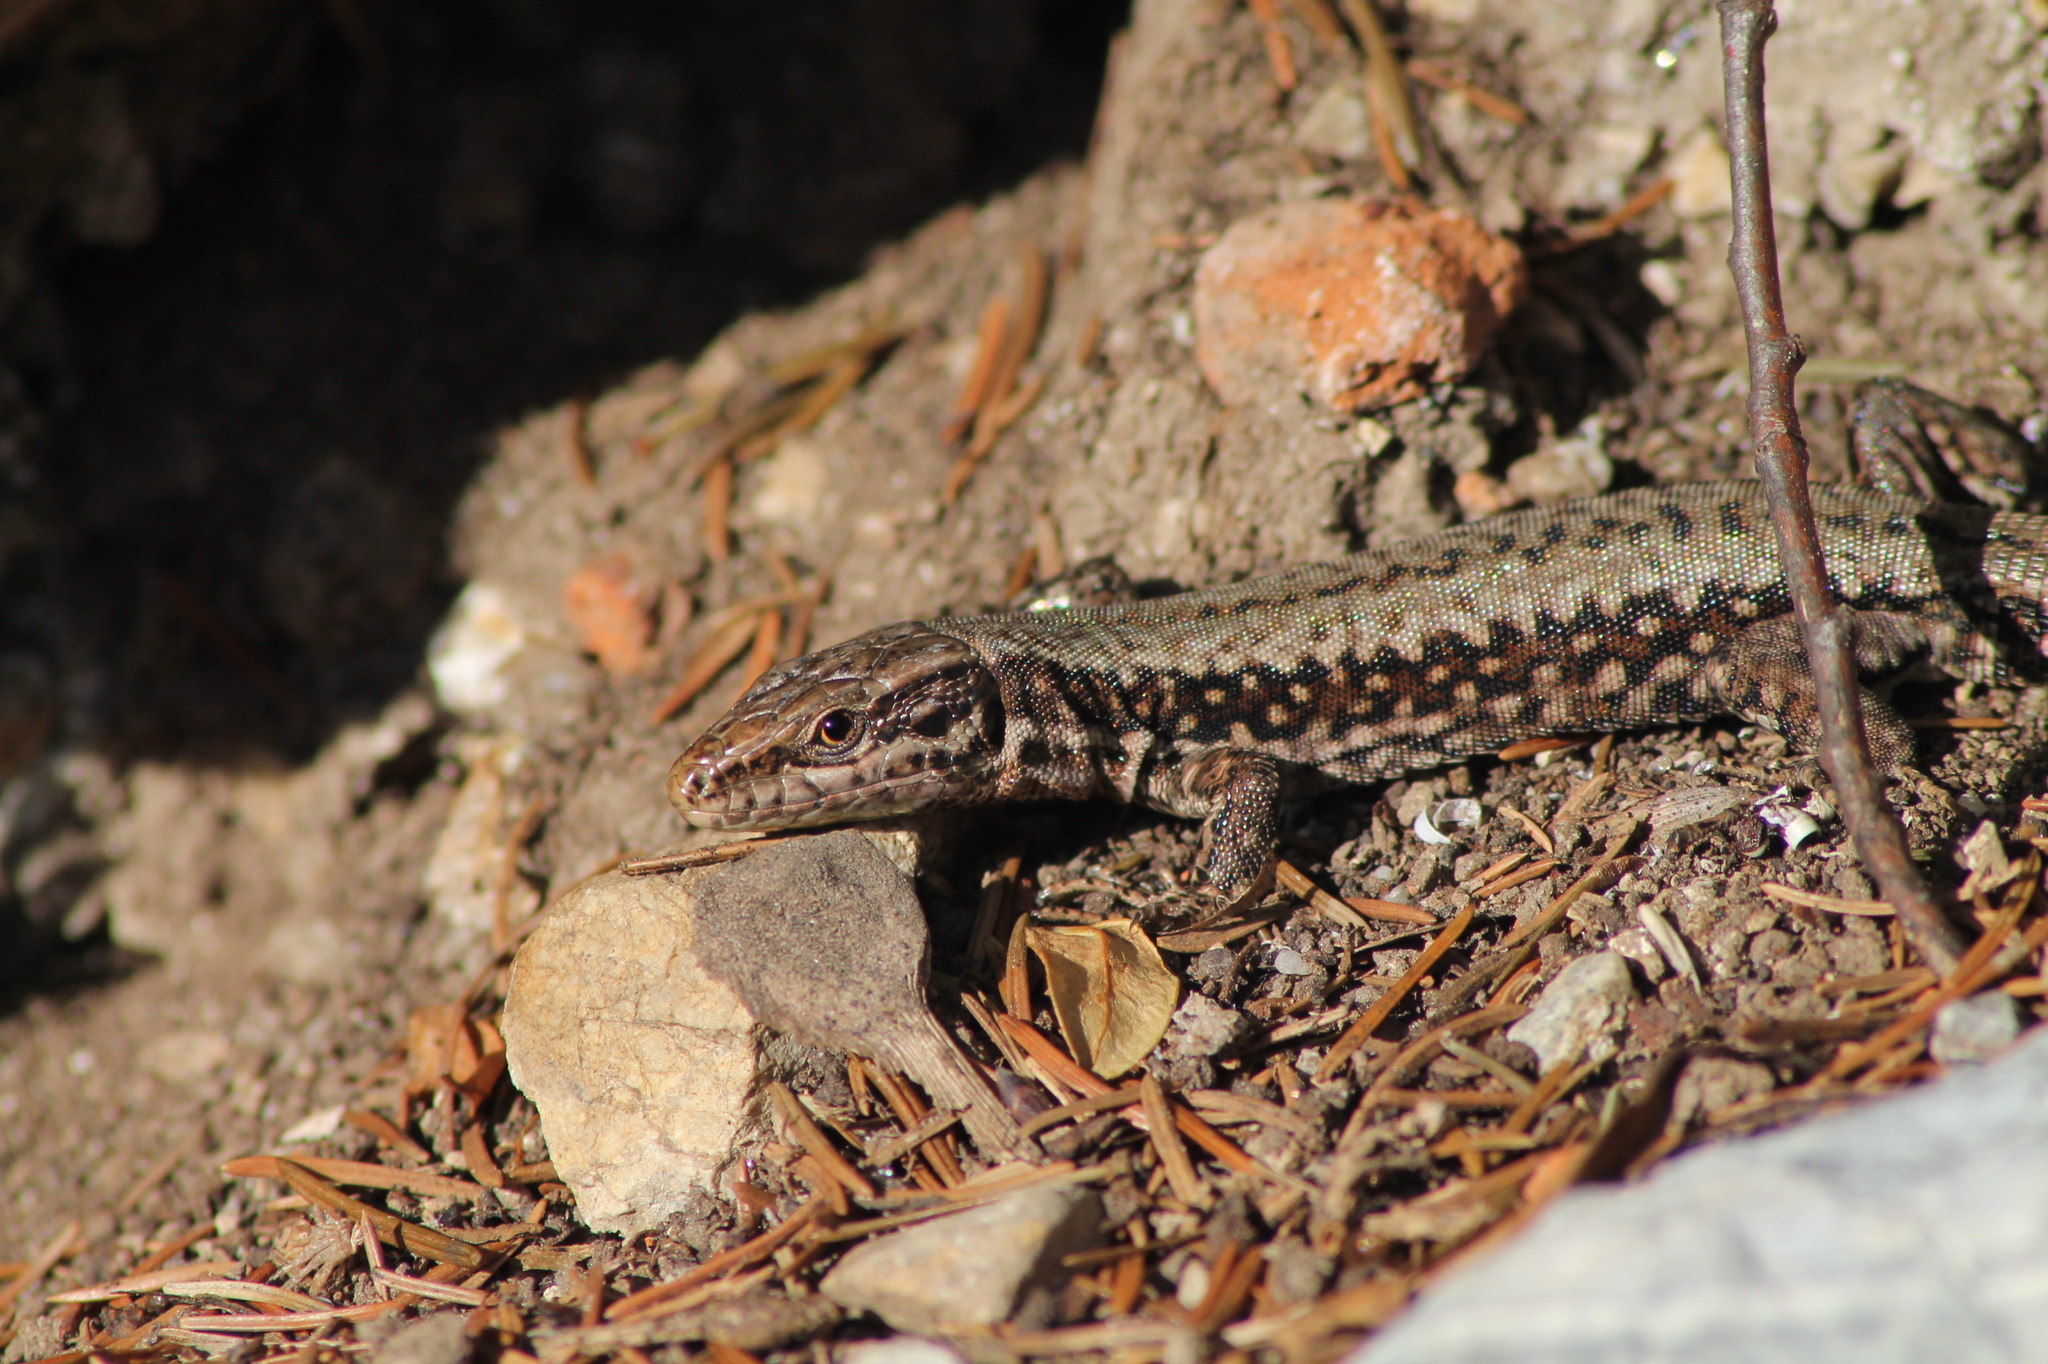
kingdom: Animalia
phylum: Chordata
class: Squamata
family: Lacertidae
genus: Podarcis
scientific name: Podarcis muralis
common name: Common wall lizard
